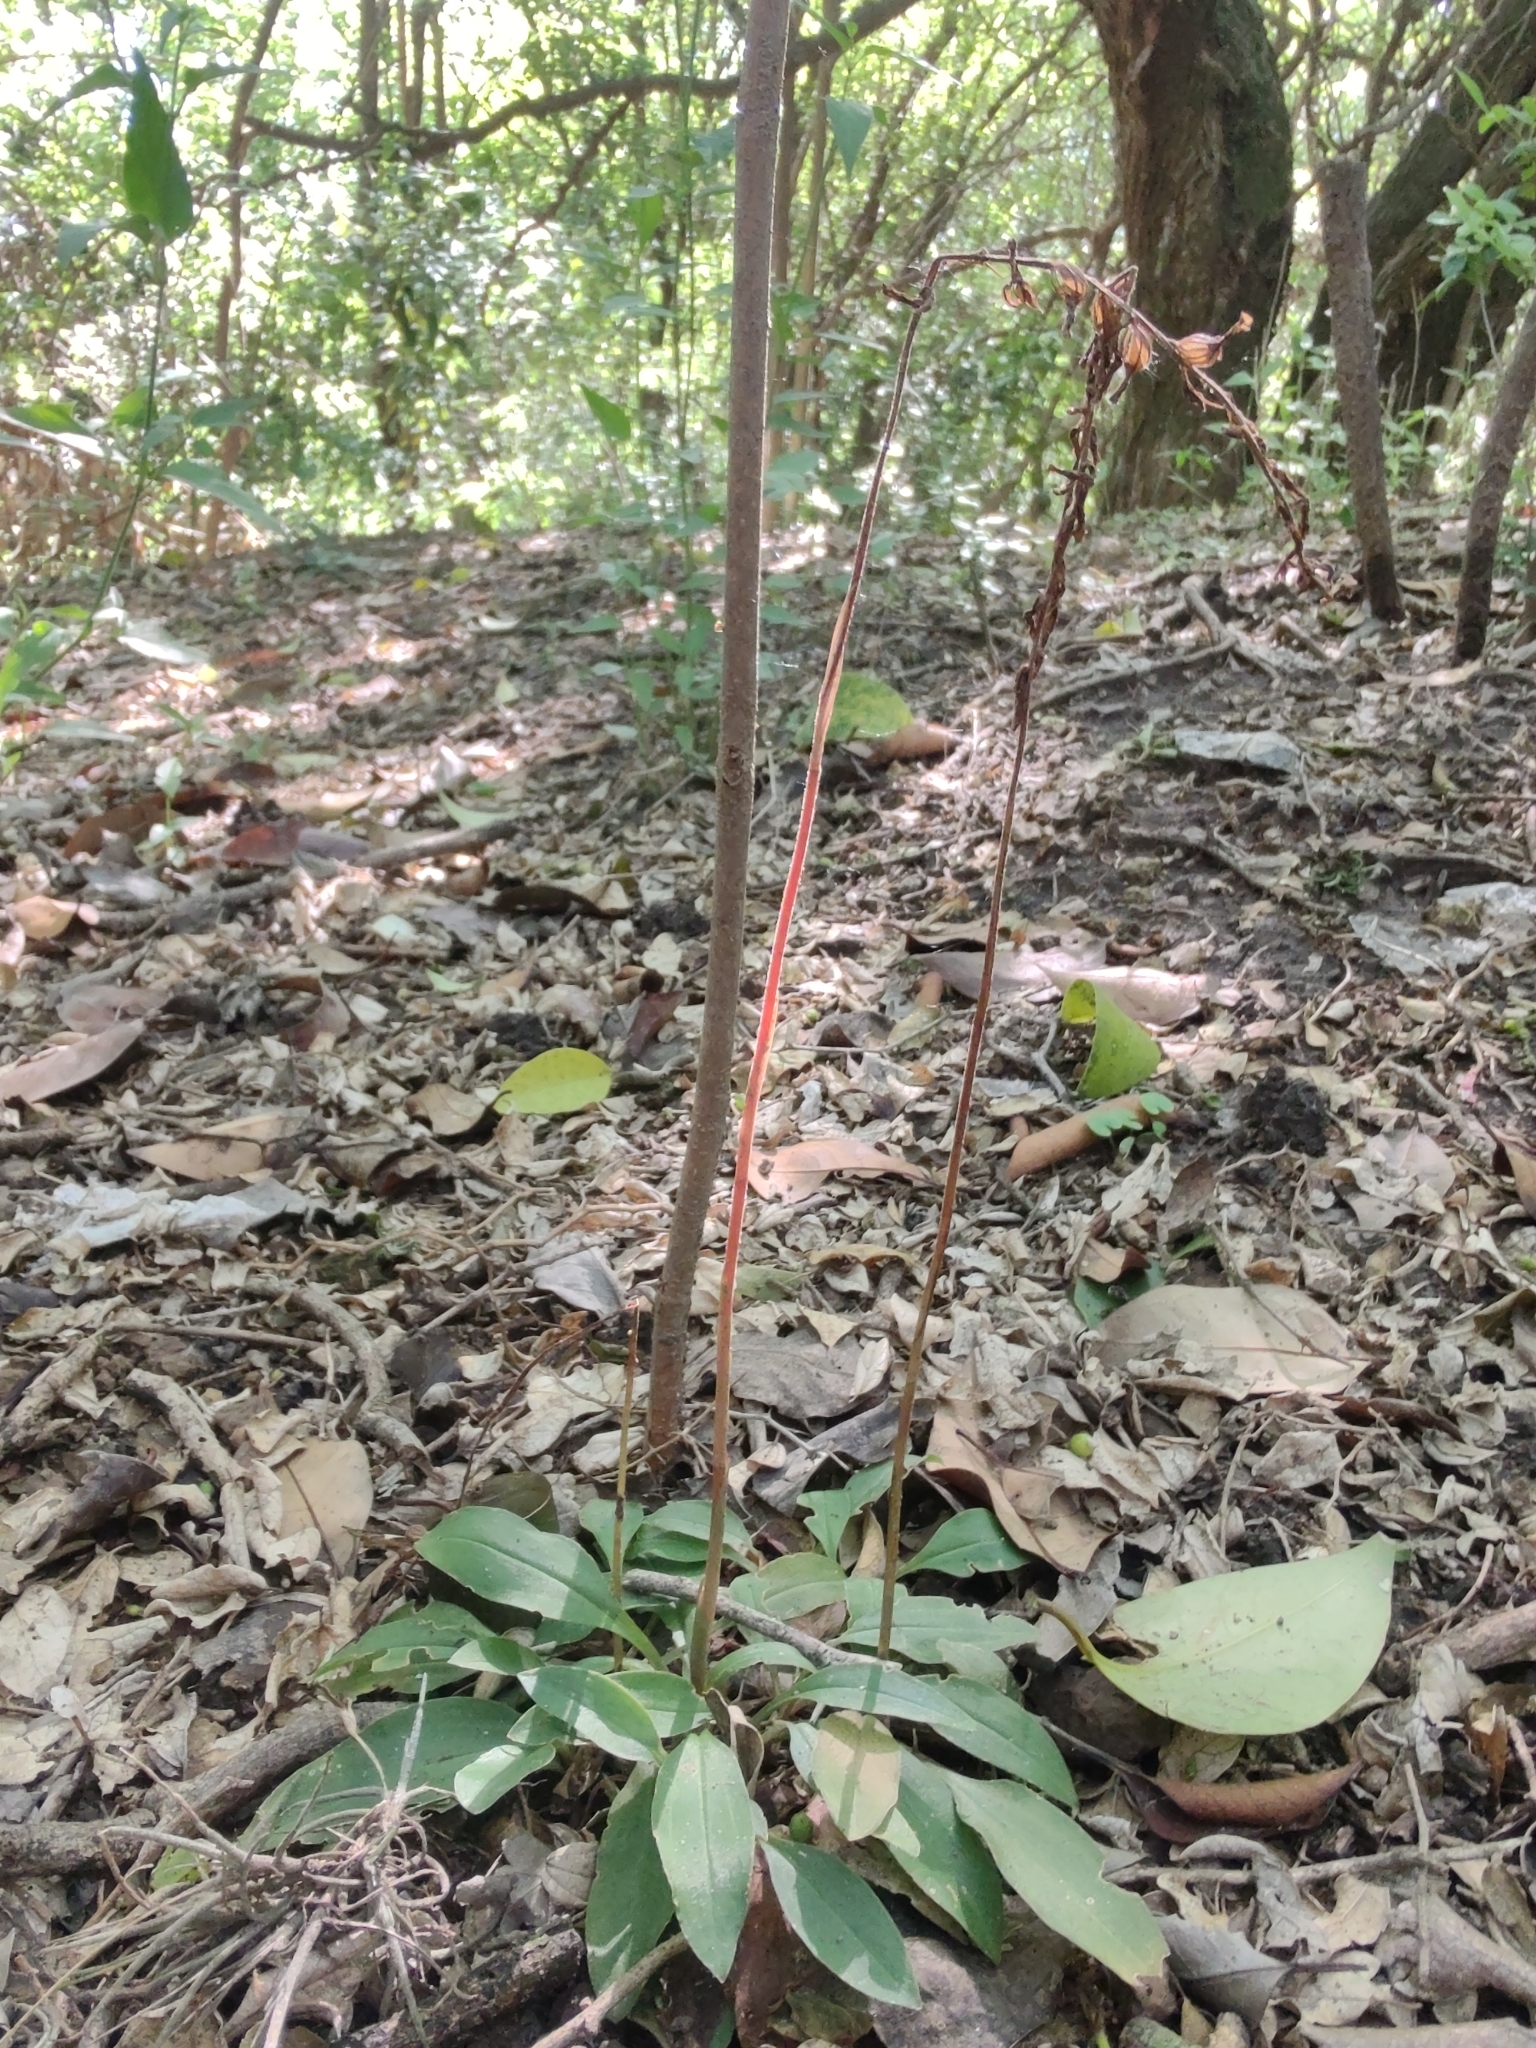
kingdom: Plantae
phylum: Tracheophyta
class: Liliopsida
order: Asparagales
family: Orchidaceae
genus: Cyclopogon
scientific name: Cyclopogon elatus
